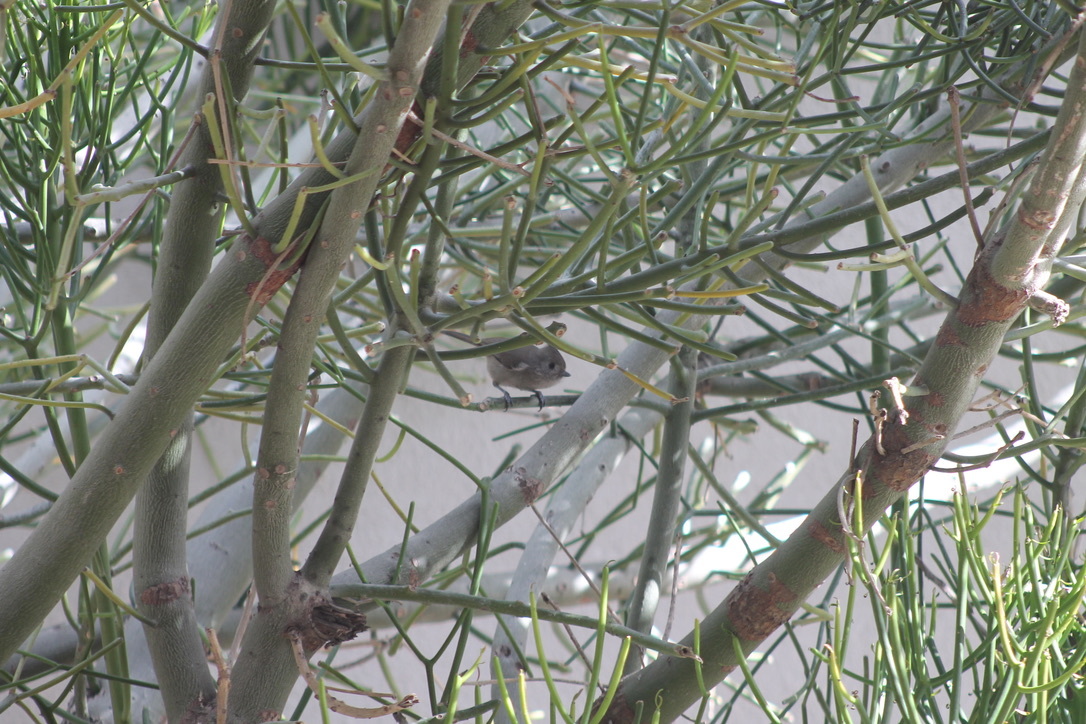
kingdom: Animalia
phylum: Chordata
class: Aves
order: Passeriformes
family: Paridae
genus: Baeolophus
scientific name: Baeolophus inornatus
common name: Oak titmouse
